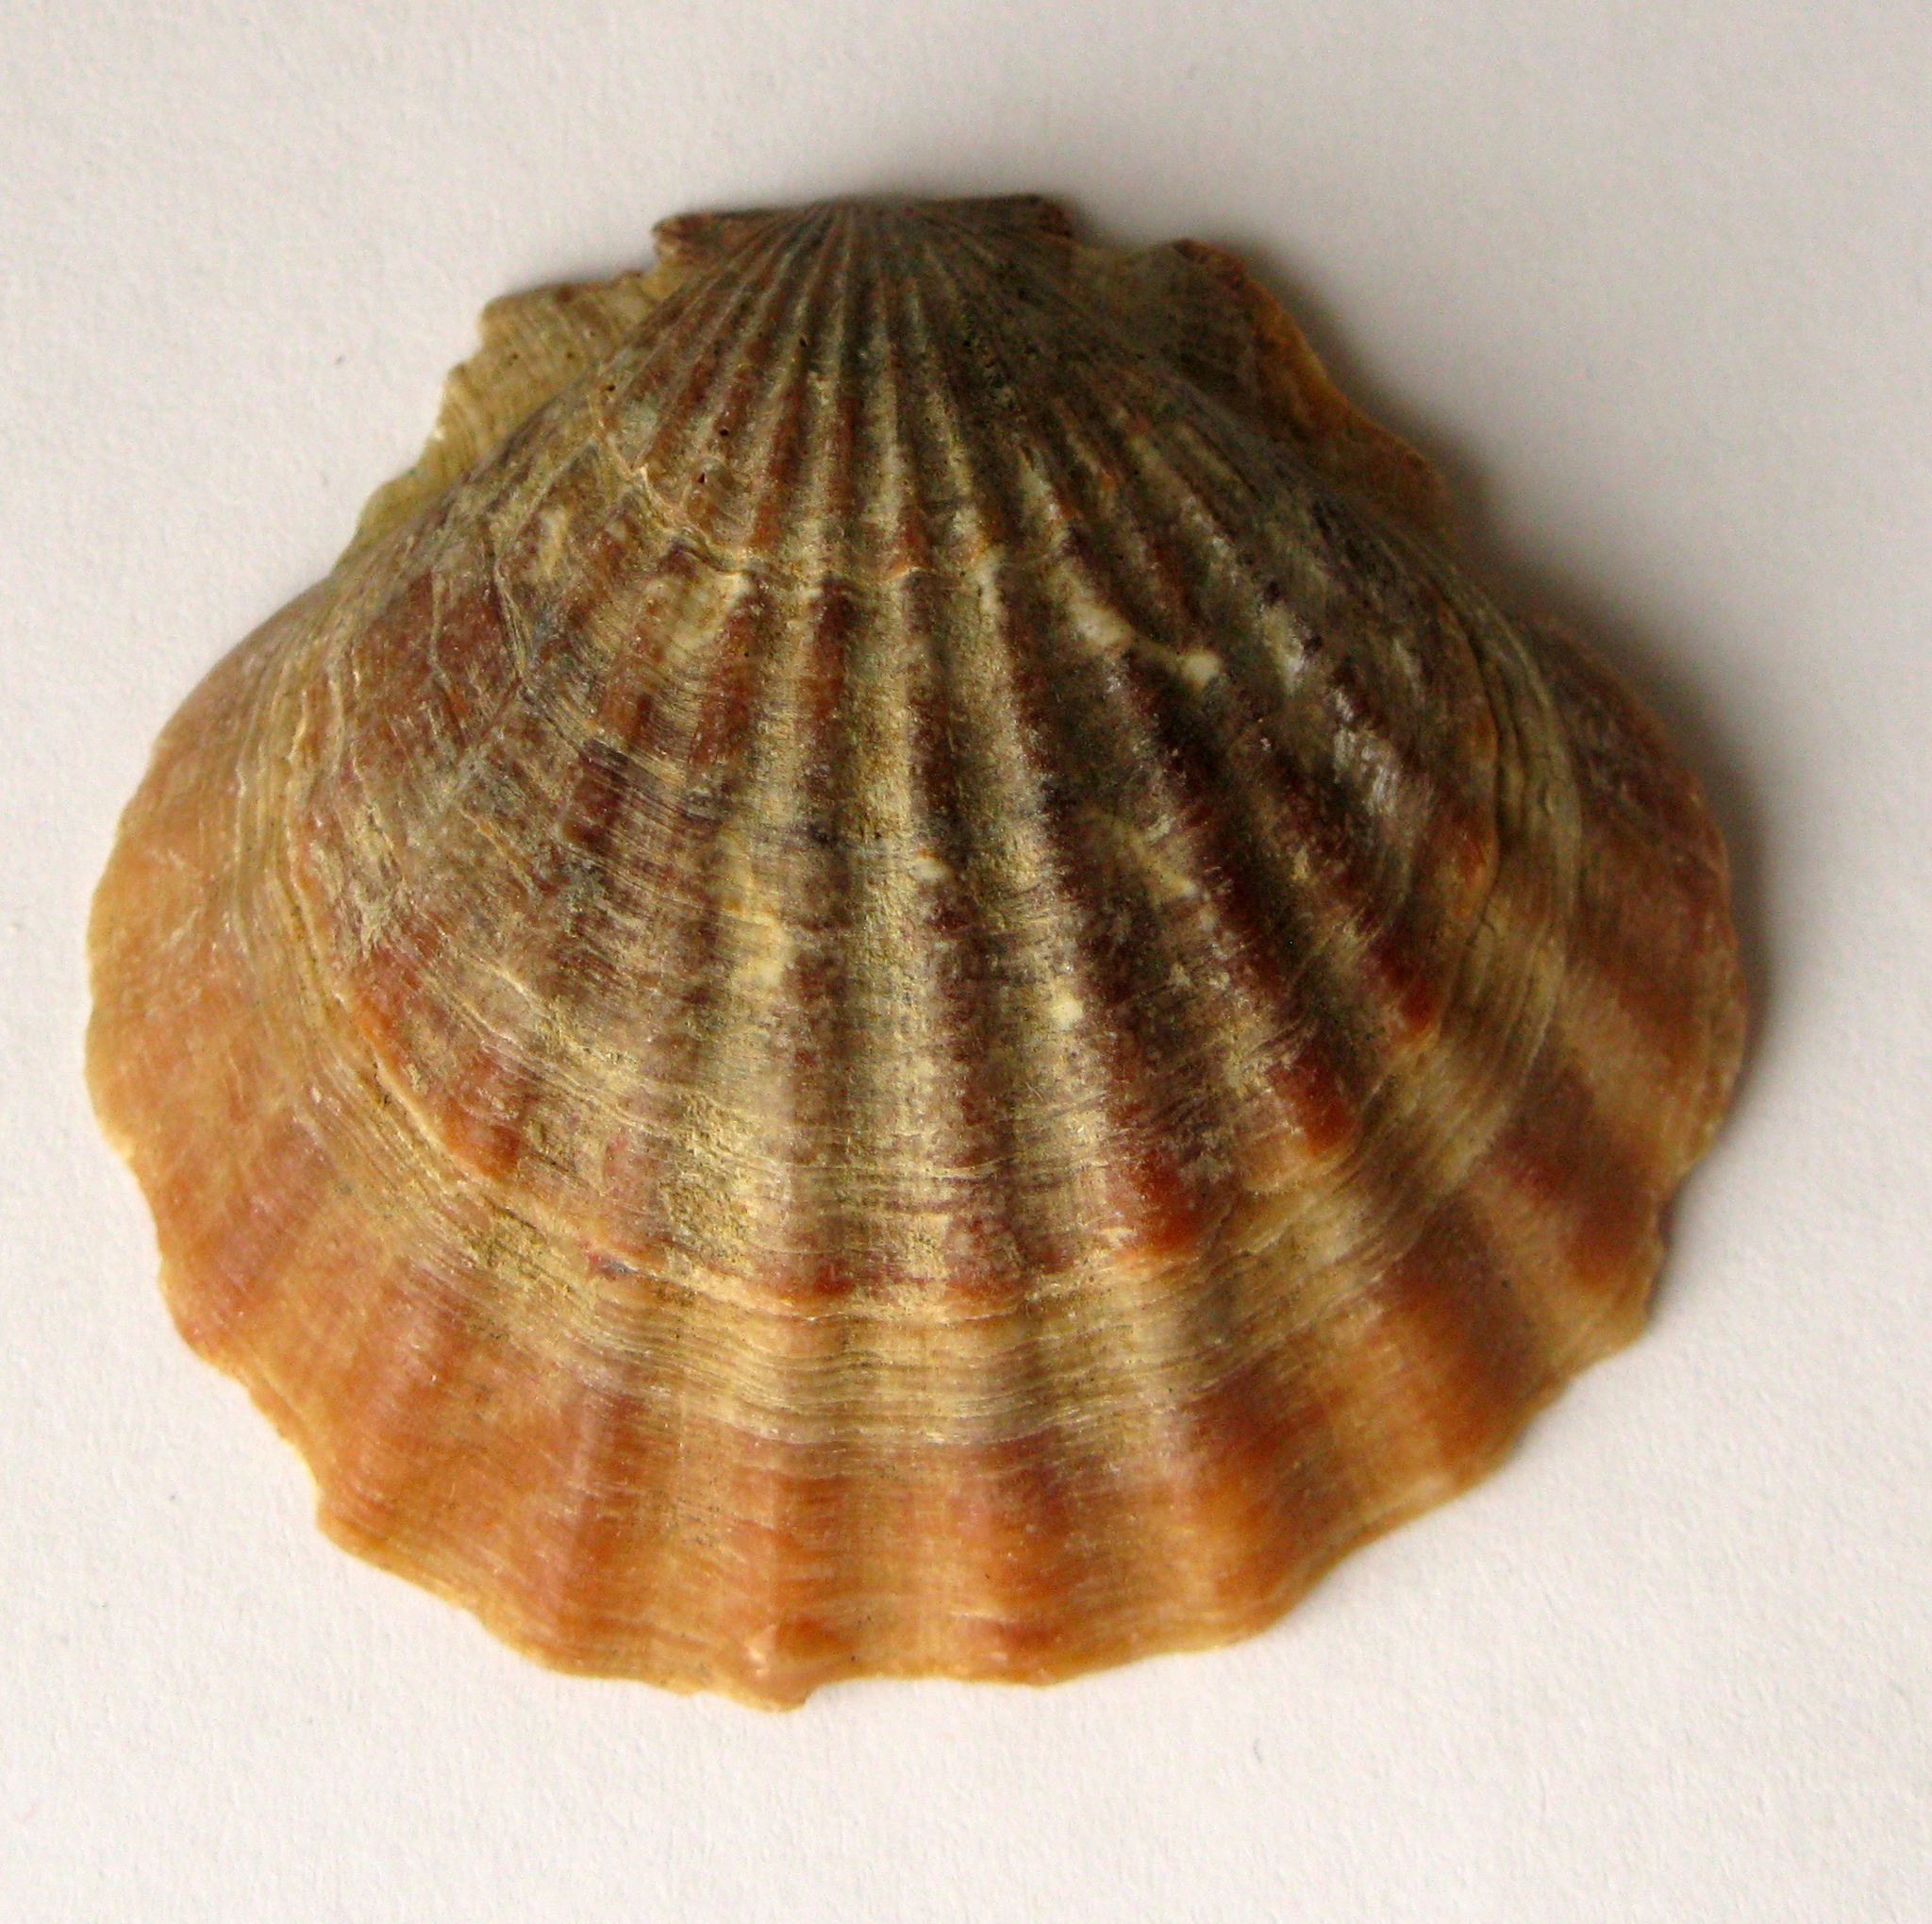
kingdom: Animalia
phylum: Mollusca
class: Bivalvia
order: Pectinida
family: Pectinidae
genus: Flexopecten
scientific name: Flexopecten glaber
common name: Smooth scallop
